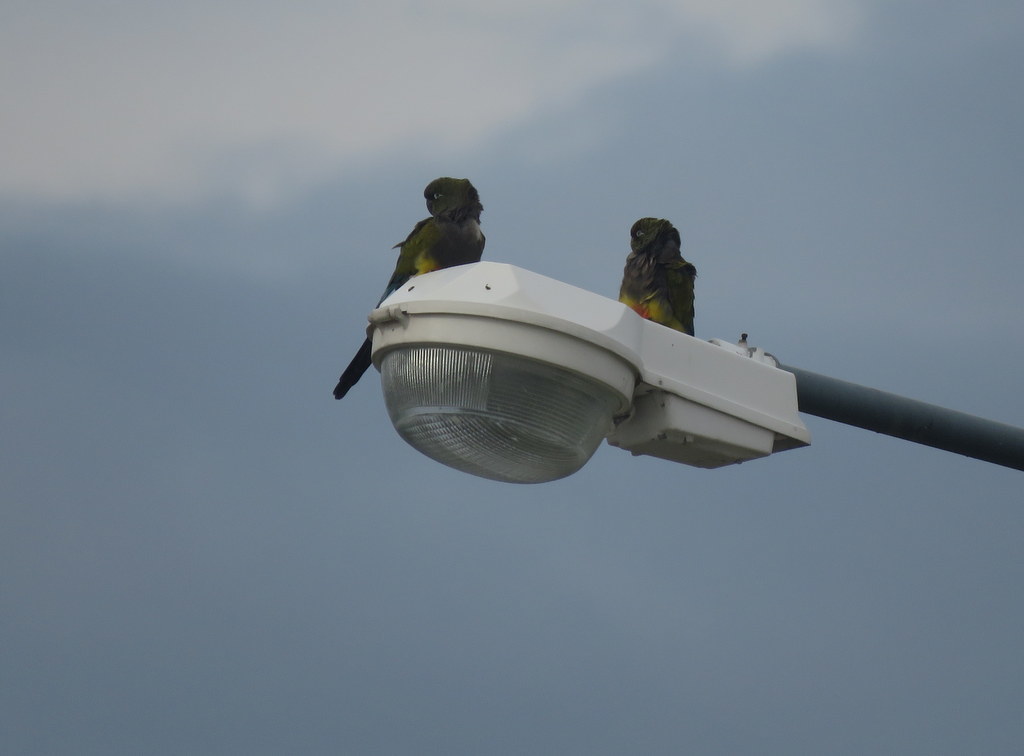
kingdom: Animalia
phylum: Chordata
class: Aves
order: Psittaciformes
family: Psittacidae
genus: Cyanoliseus
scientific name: Cyanoliseus patagonus
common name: Burrowing parrot
